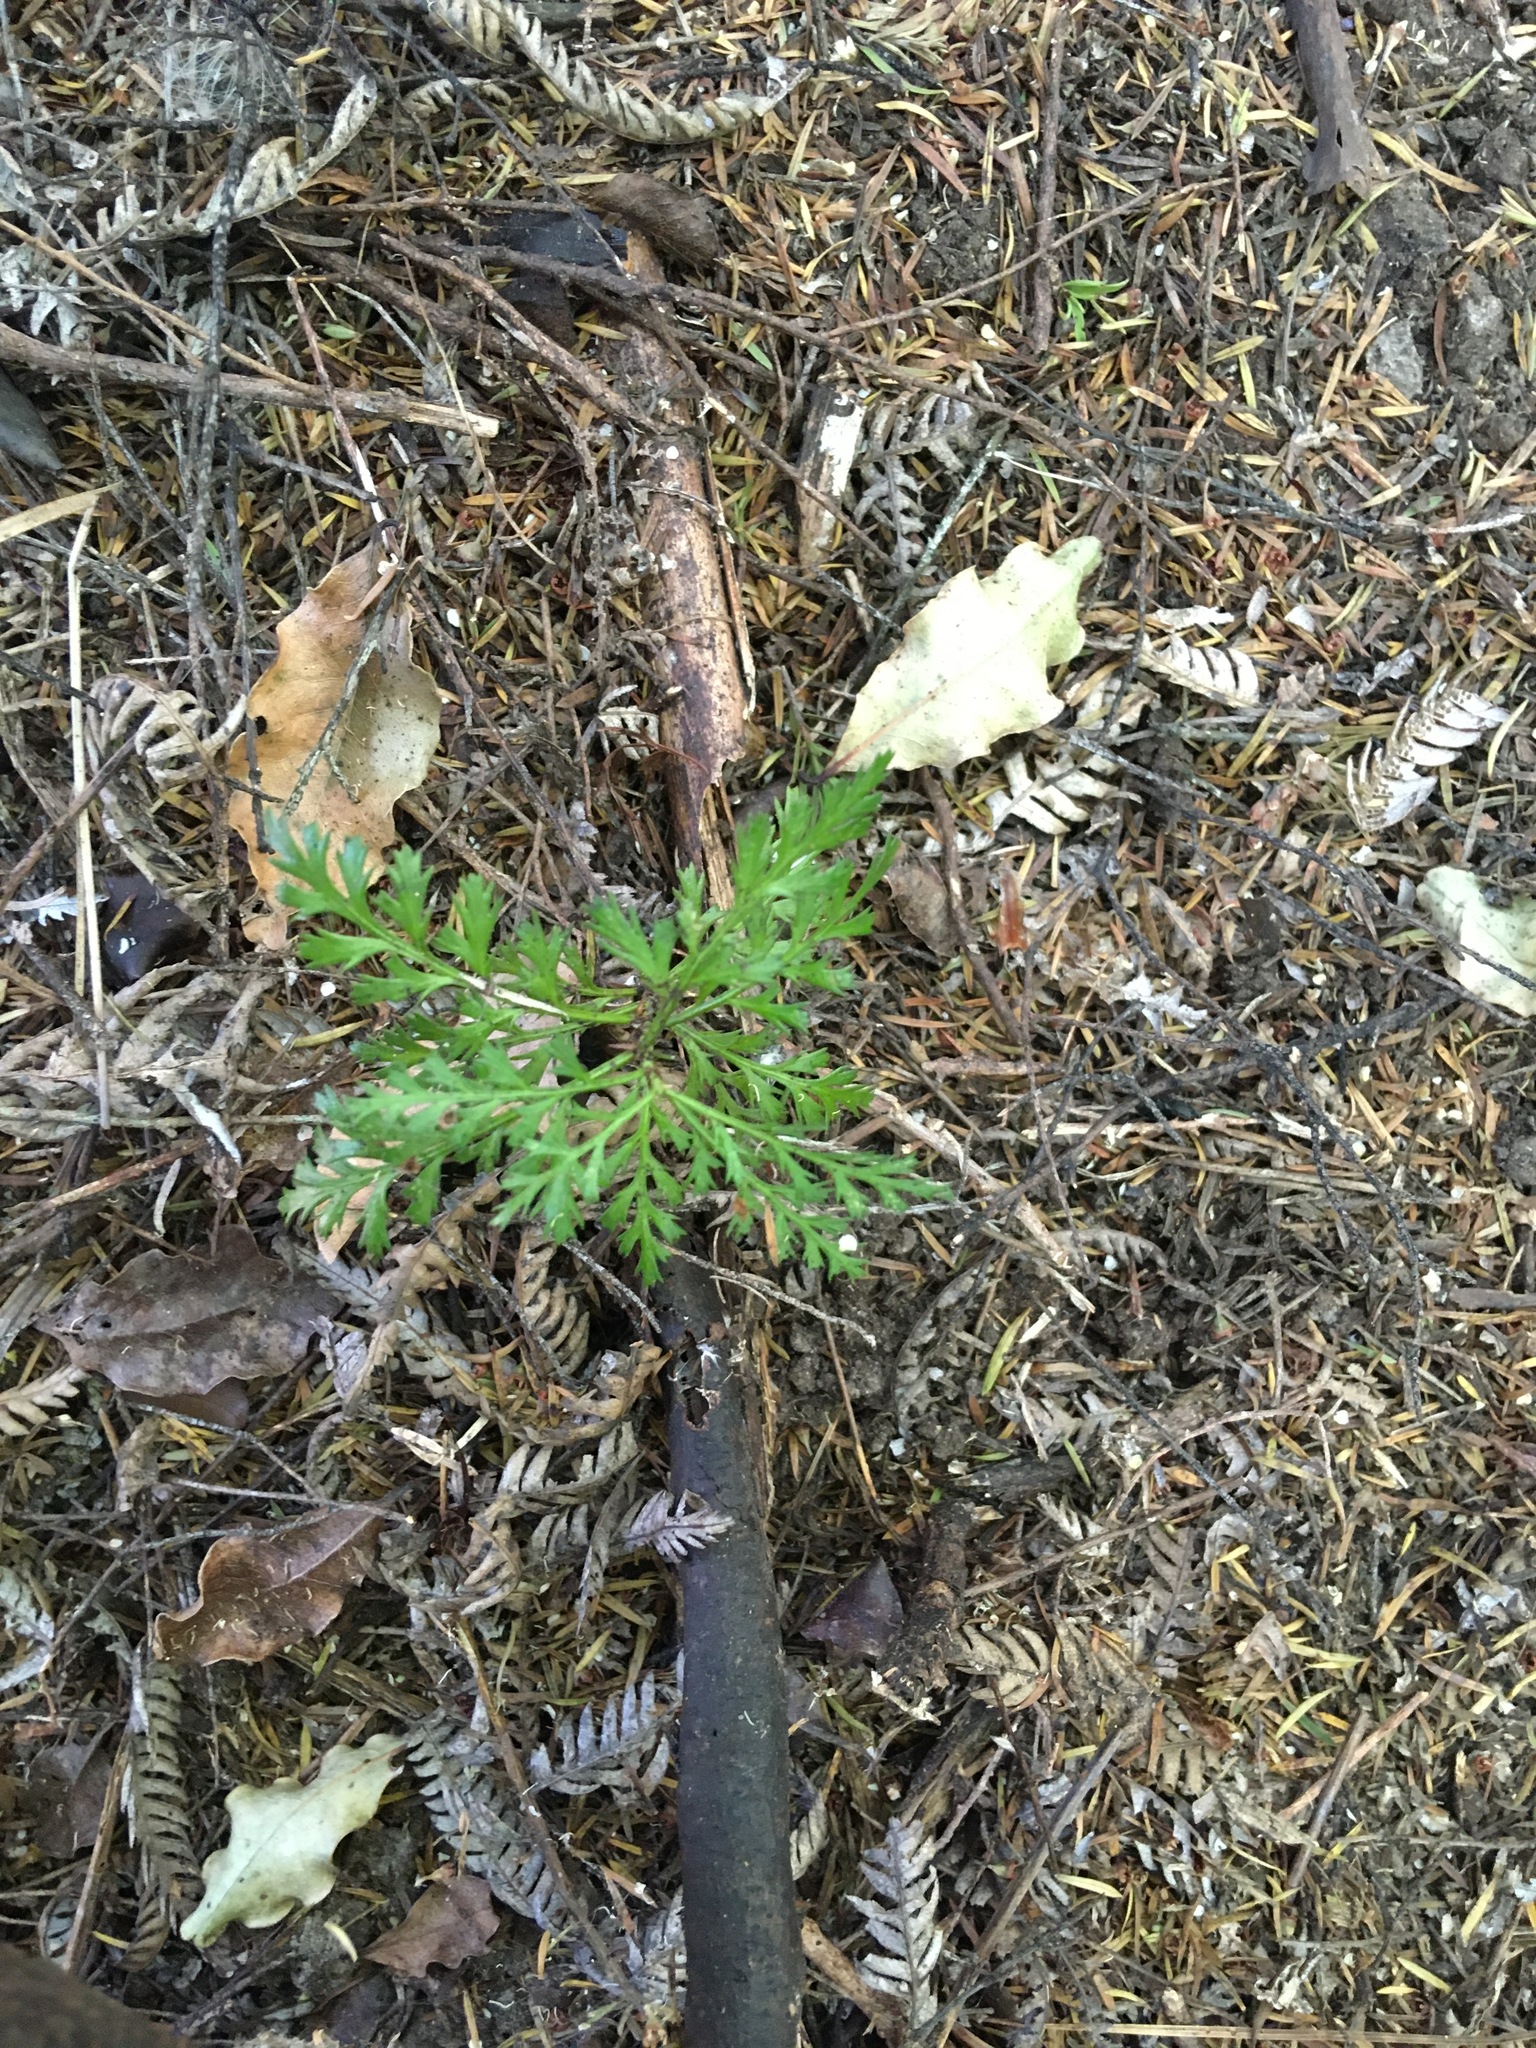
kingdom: Plantae
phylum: Tracheophyta
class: Pinopsida
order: Pinales
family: Phyllocladaceae
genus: Phyllocladus
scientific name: Phyllocladus trichomanoides
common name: Celery pine
